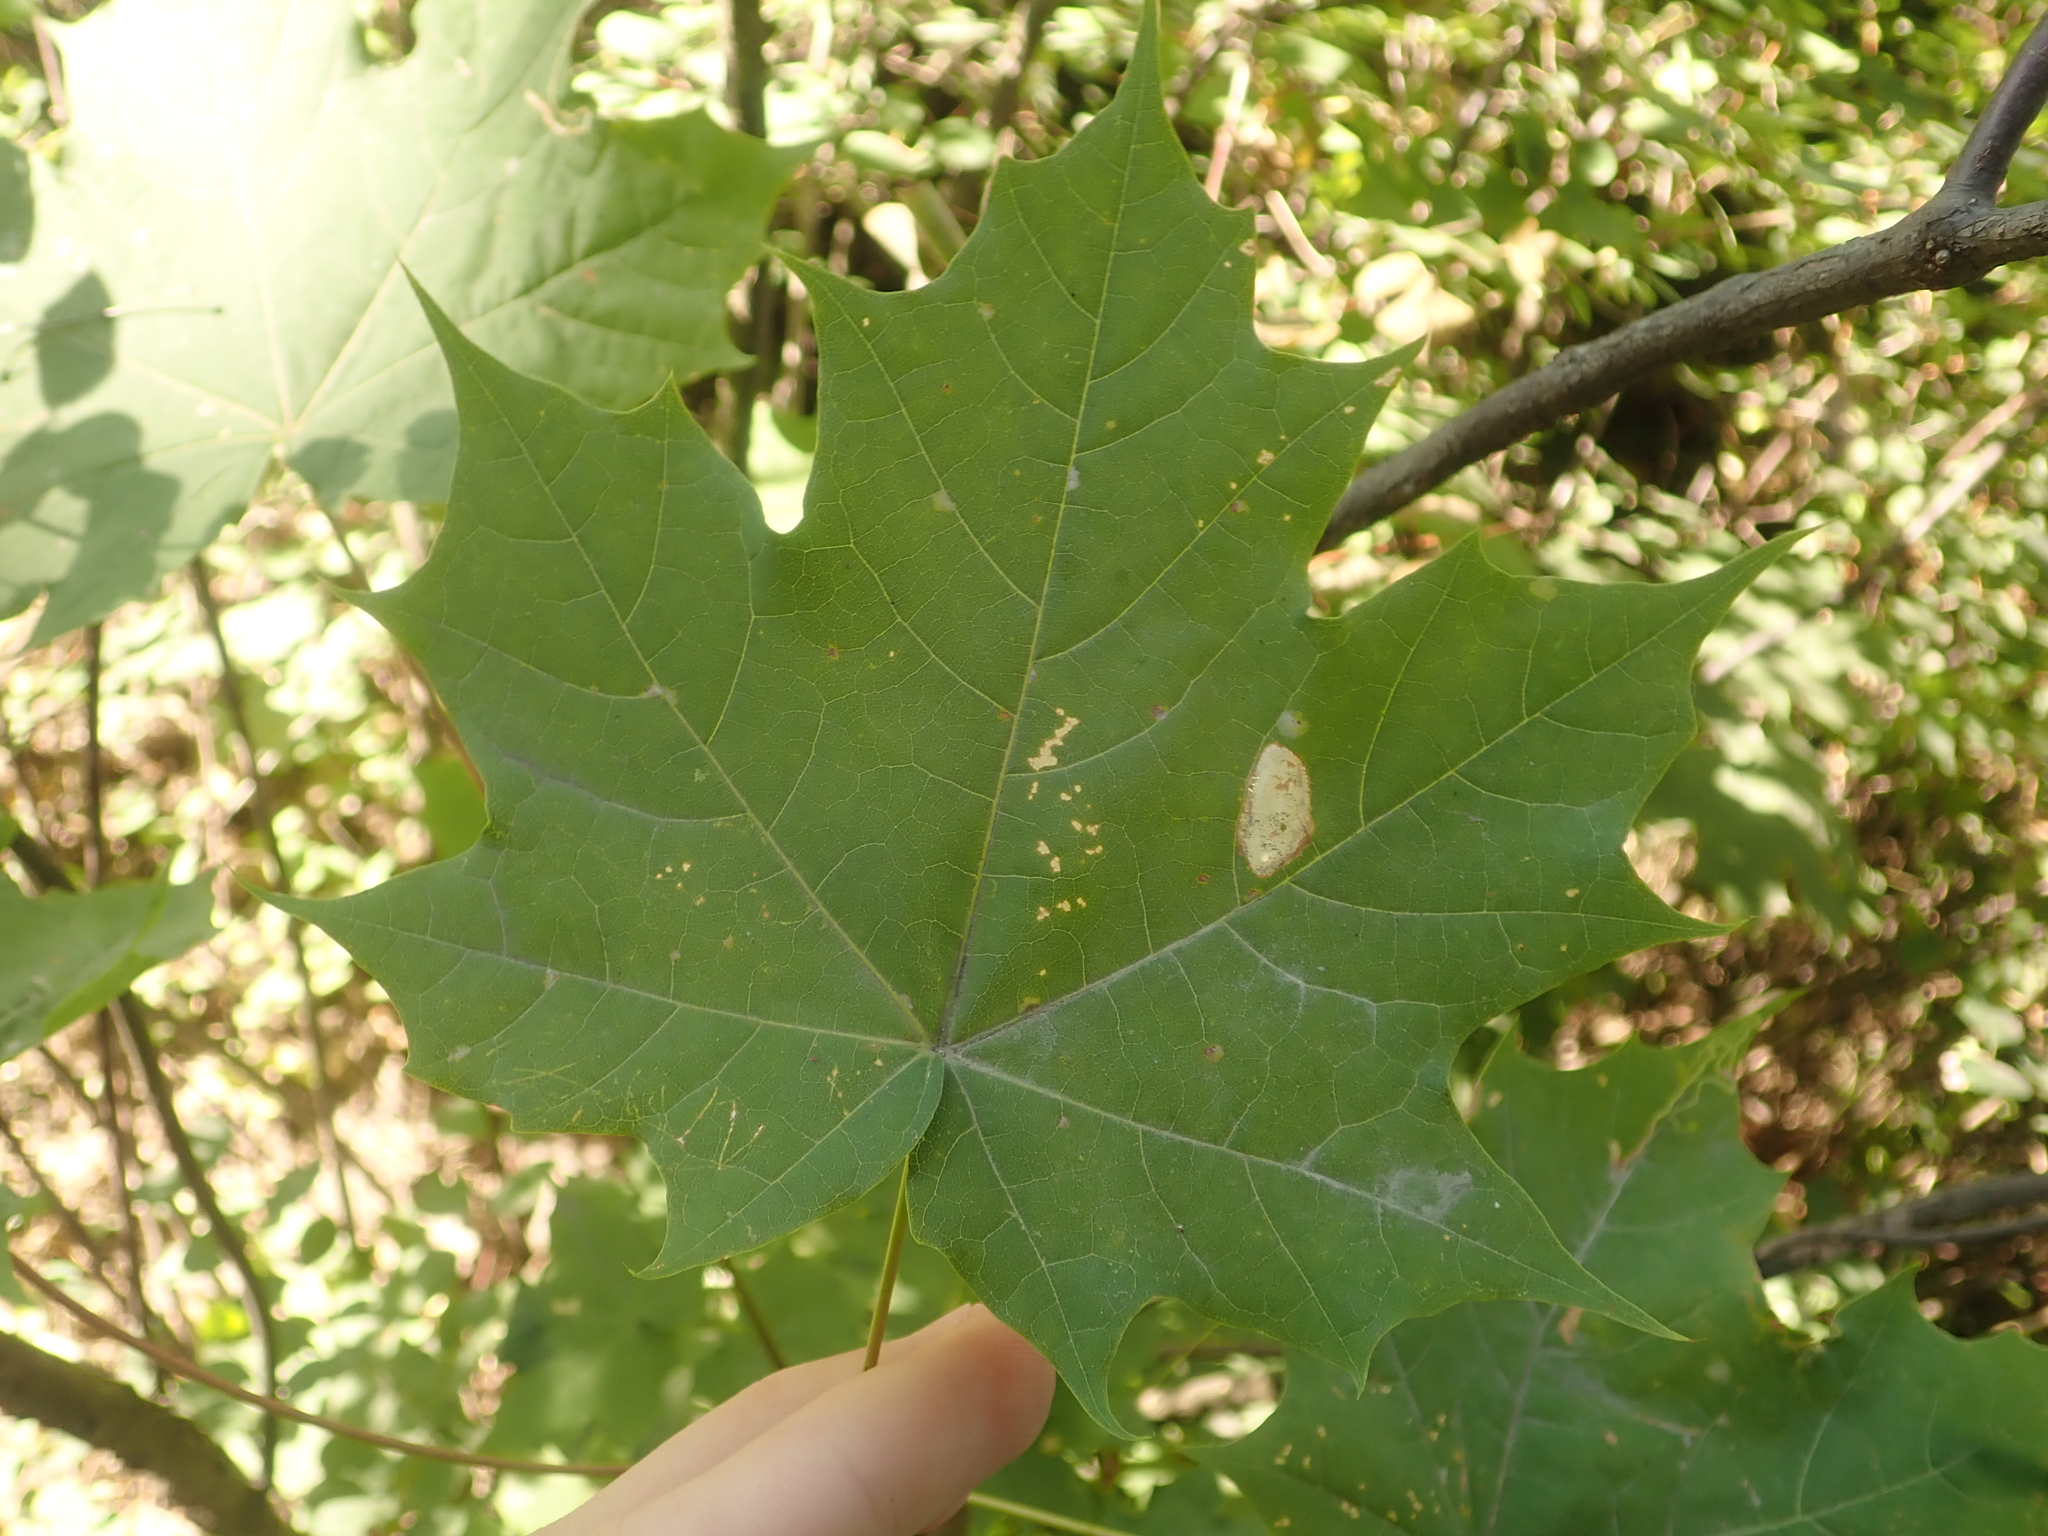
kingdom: Plantae
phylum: Tracheophyta
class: Magnoliopsida
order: Sapindales
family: Sapindaceae
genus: Acer
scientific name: Acer platanoides
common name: Norway maple
